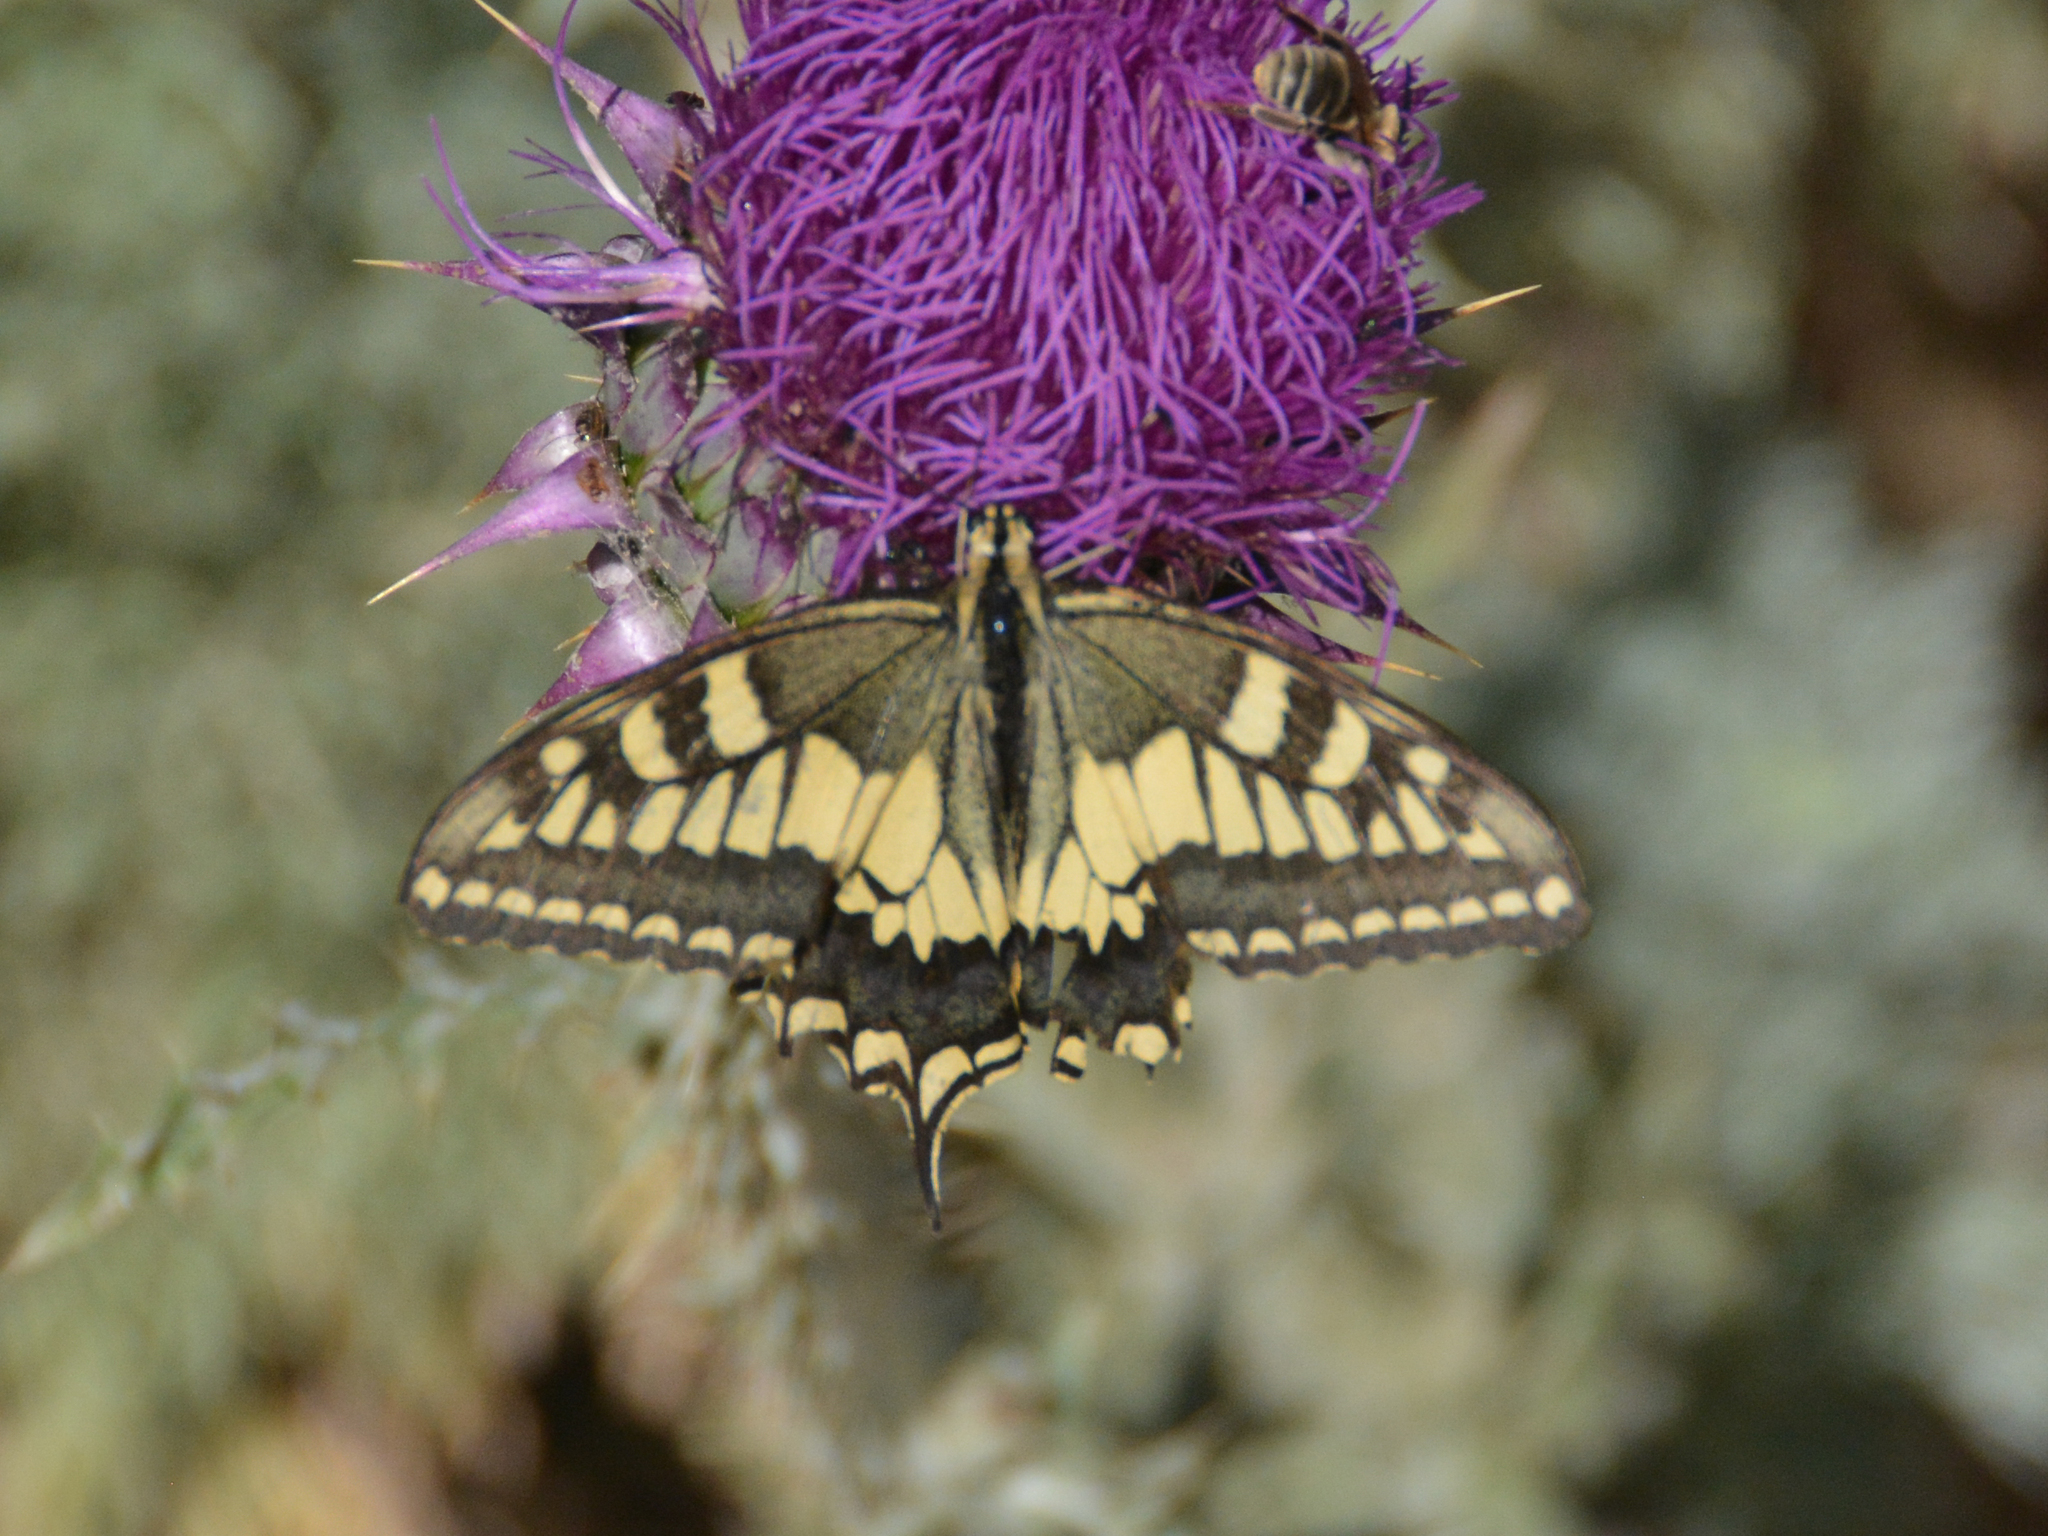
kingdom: Animalia
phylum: Arthropoda
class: Insecta
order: Lepidoptera
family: Papilionidae
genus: Papilio
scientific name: Papilio machaon
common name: Swallowtail
